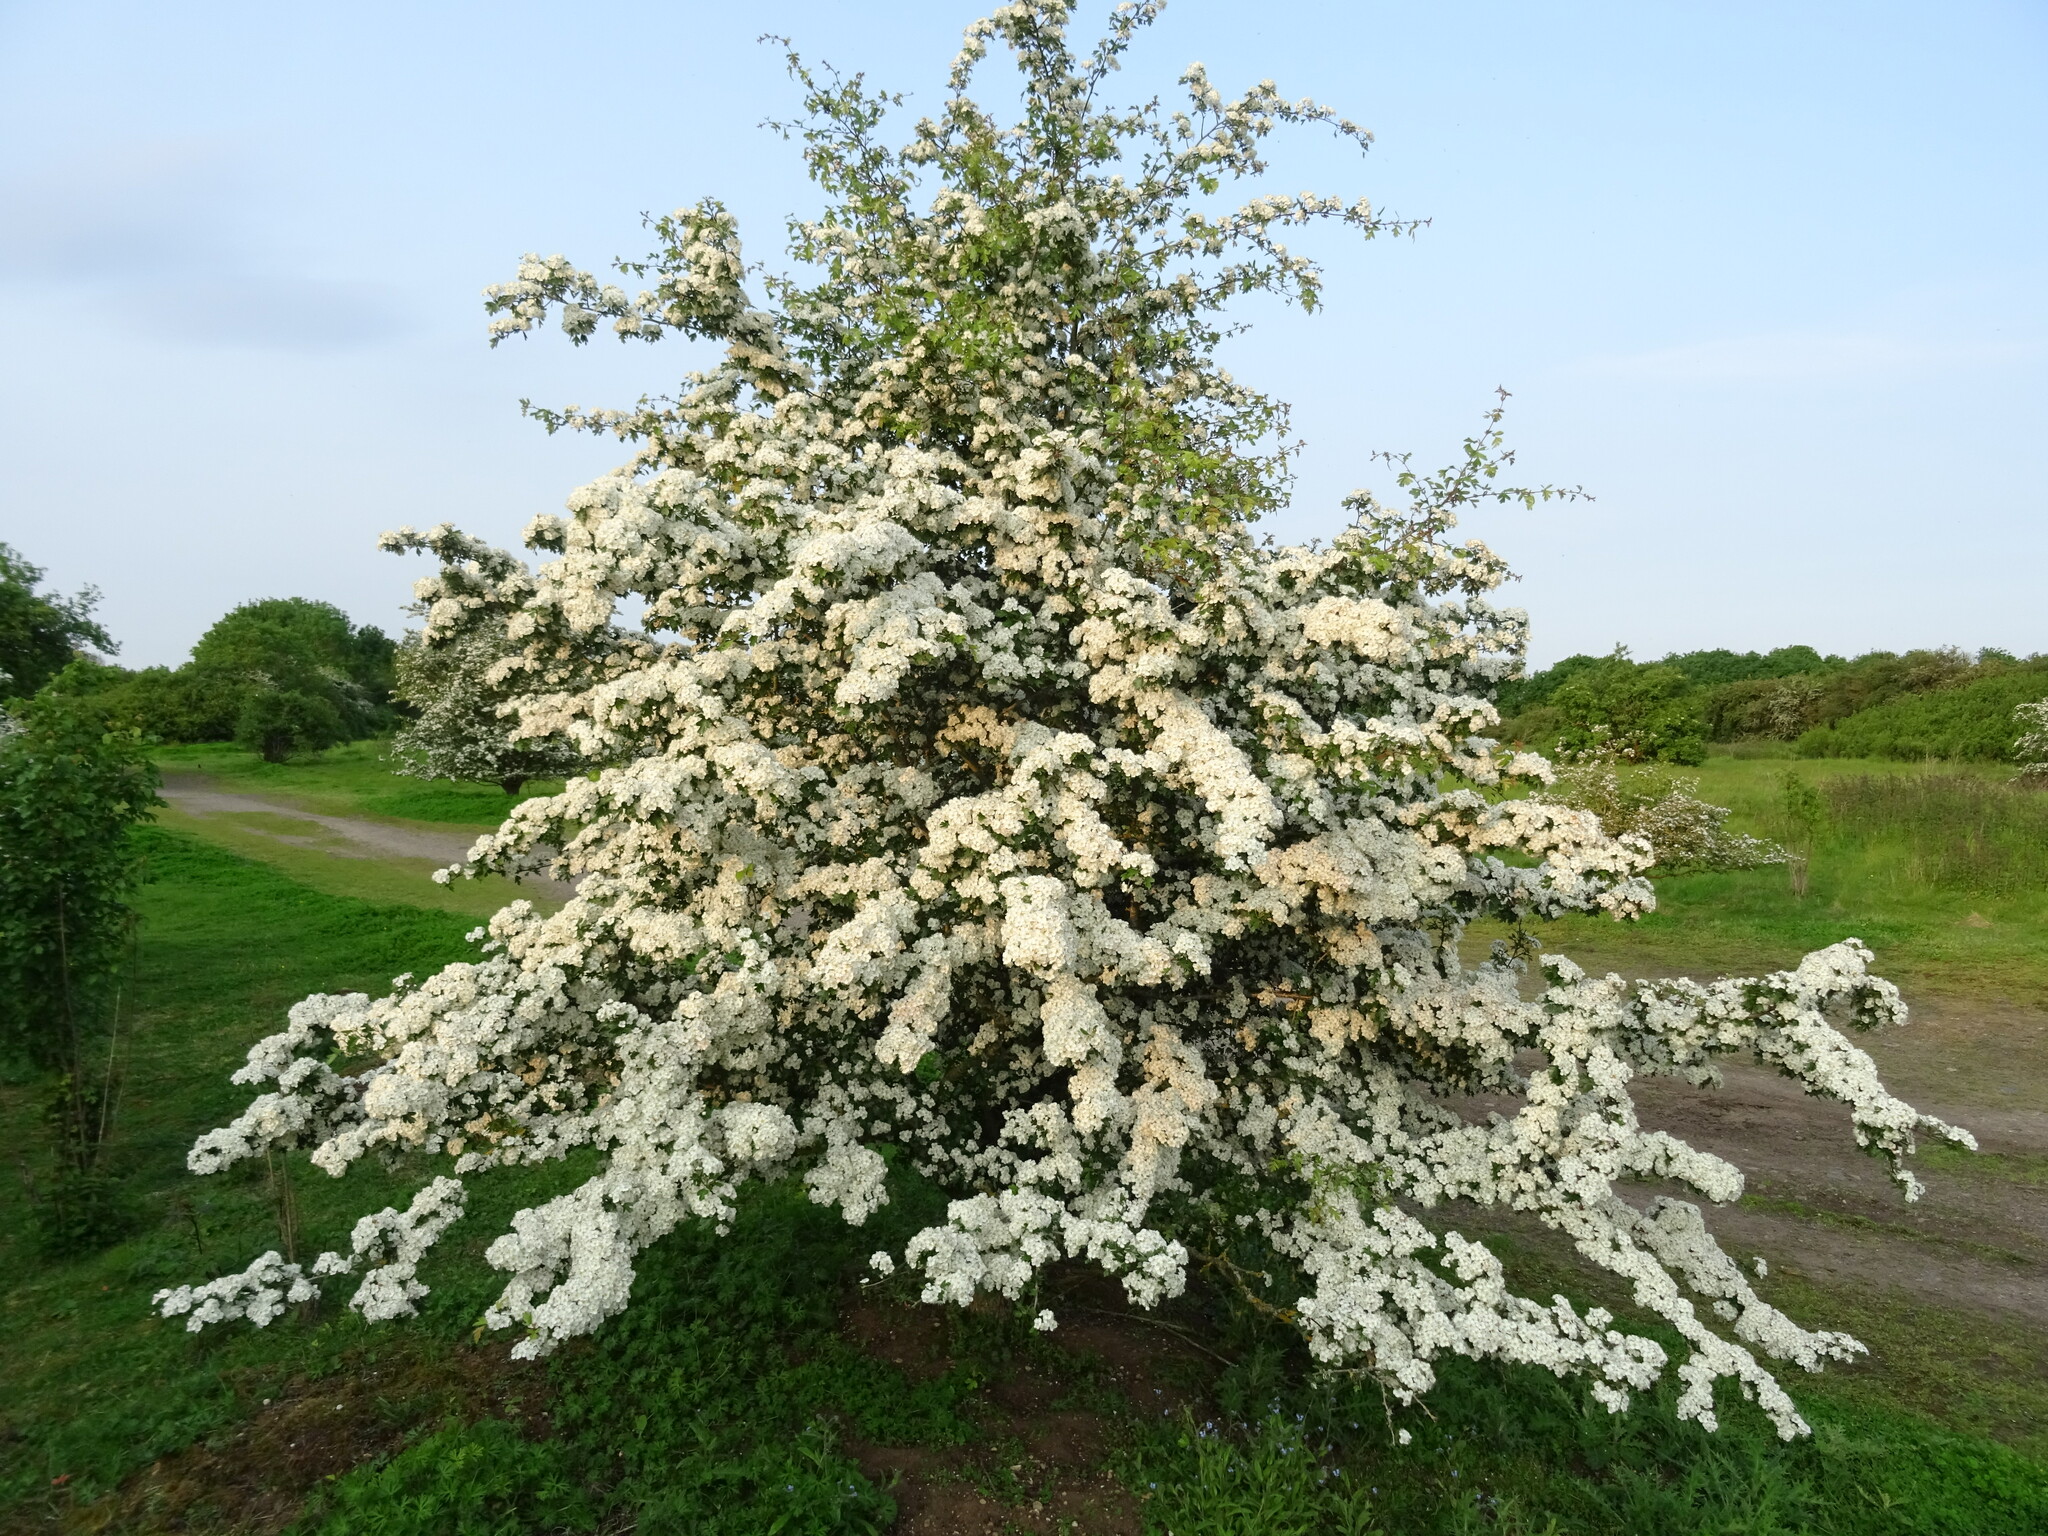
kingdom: Plantae
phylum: Tracheophyta
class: Magnoliopsida
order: Rosales
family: Rosaceae
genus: Crataegus
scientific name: Crataegus monogyna
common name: Hawthorn
